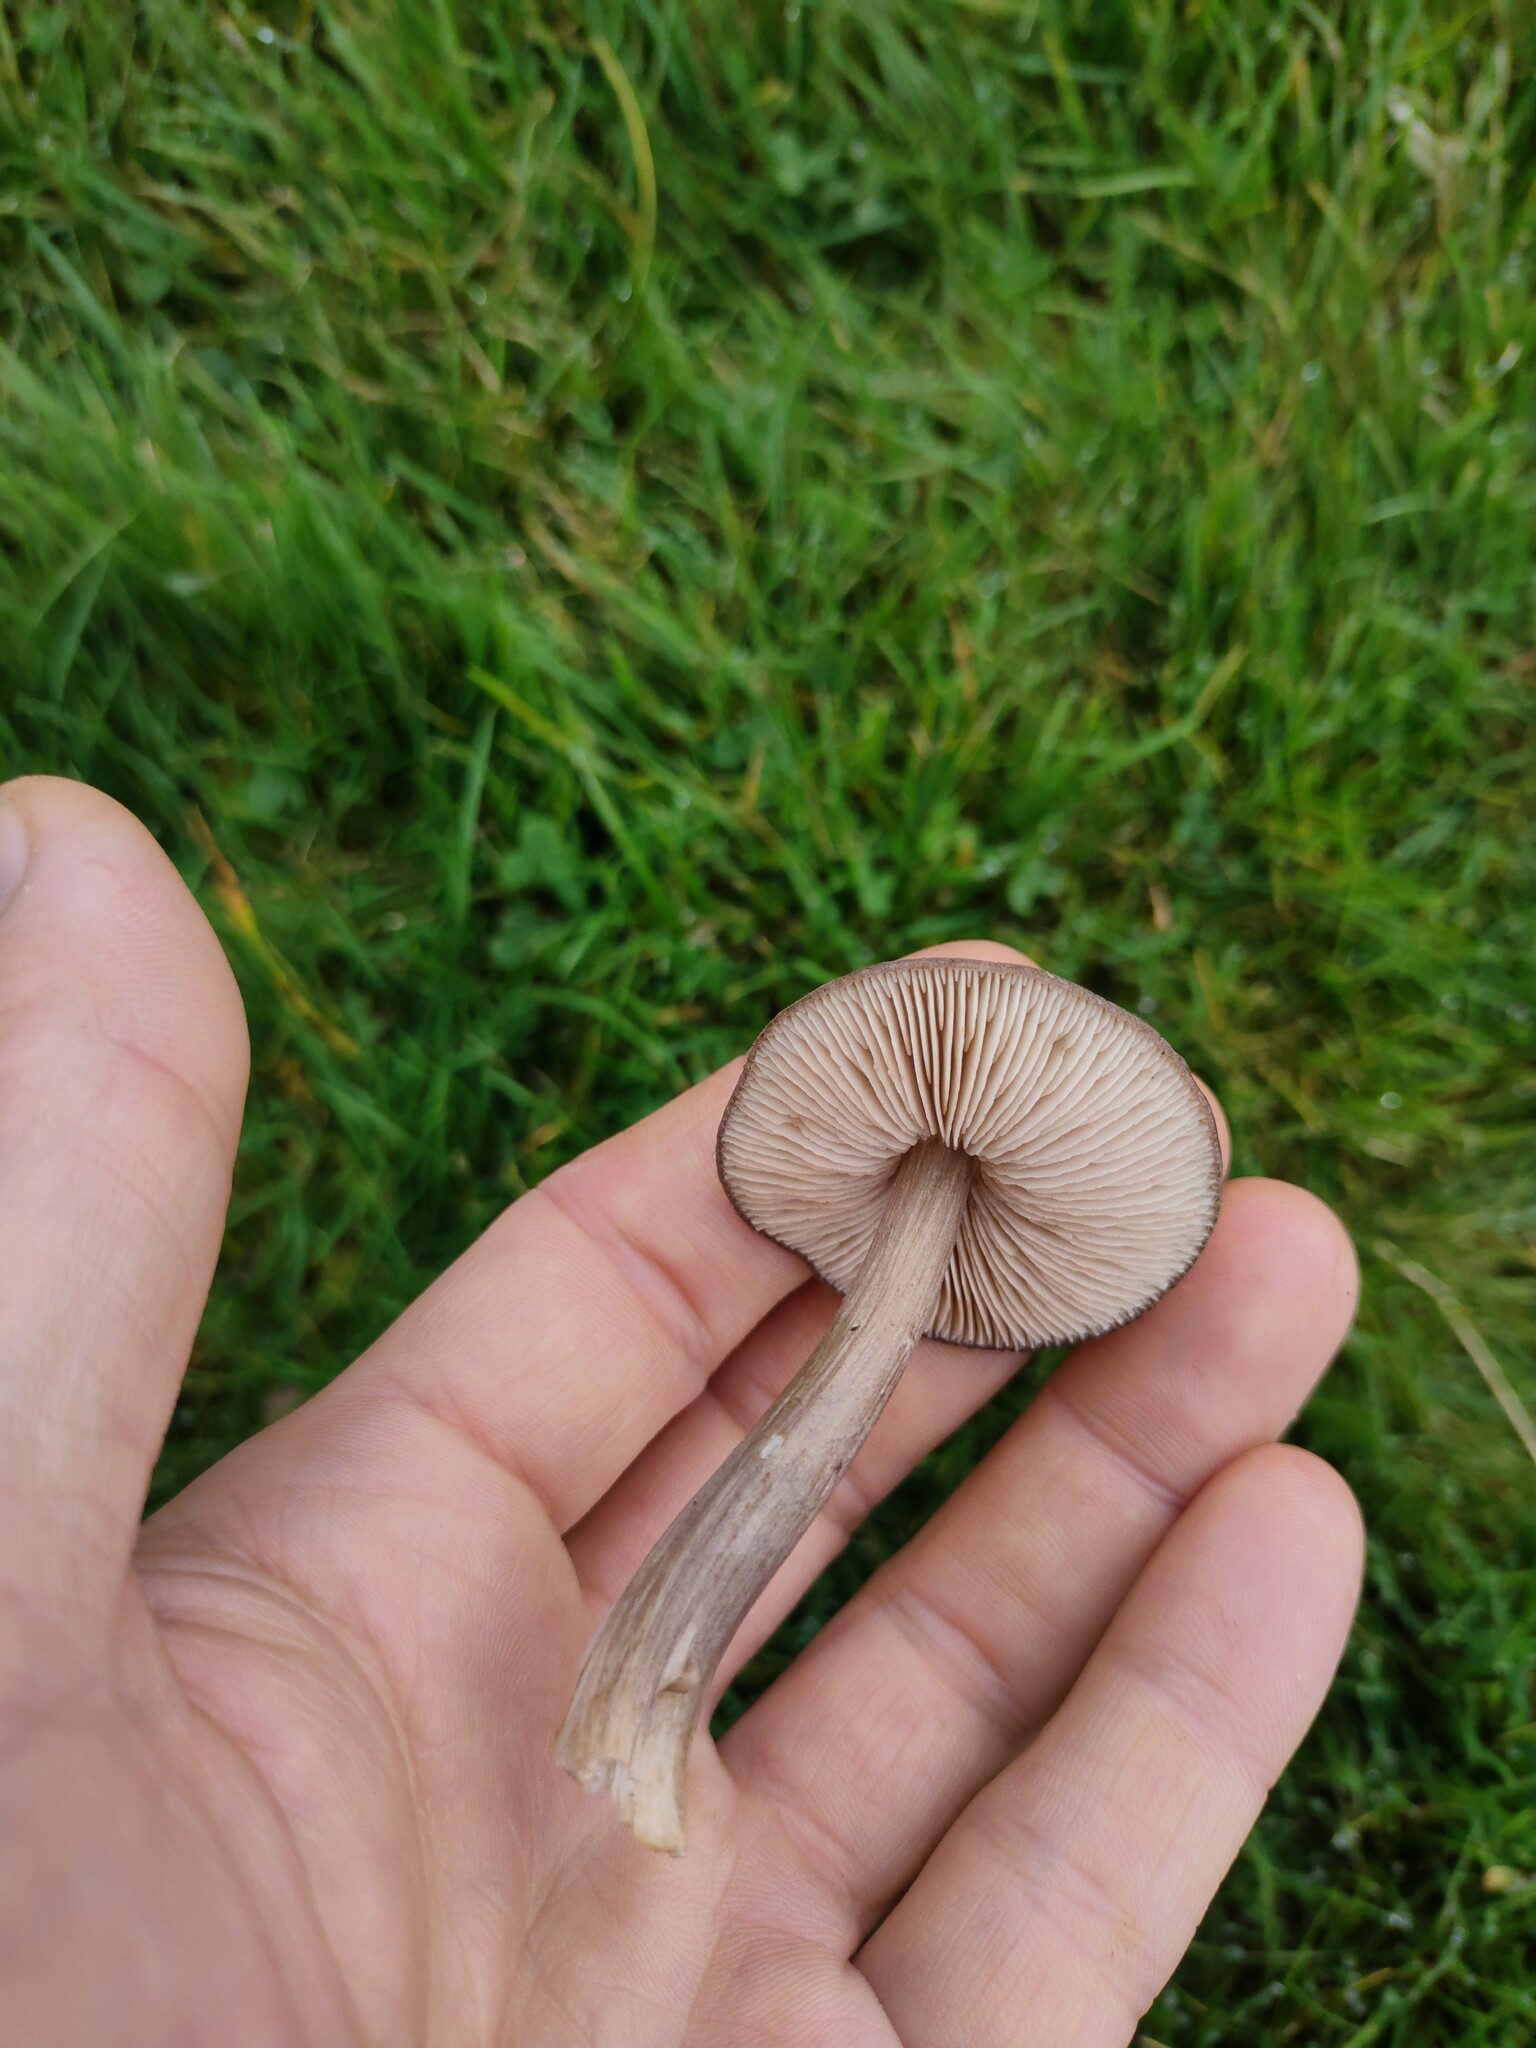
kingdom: Fungi
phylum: Basidiomycota
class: Agaricomycetes
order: Agaricales
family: Entolomataceae
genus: Entoloma
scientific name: Entoloma porphyrophaeum
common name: Lilac pinkgill
